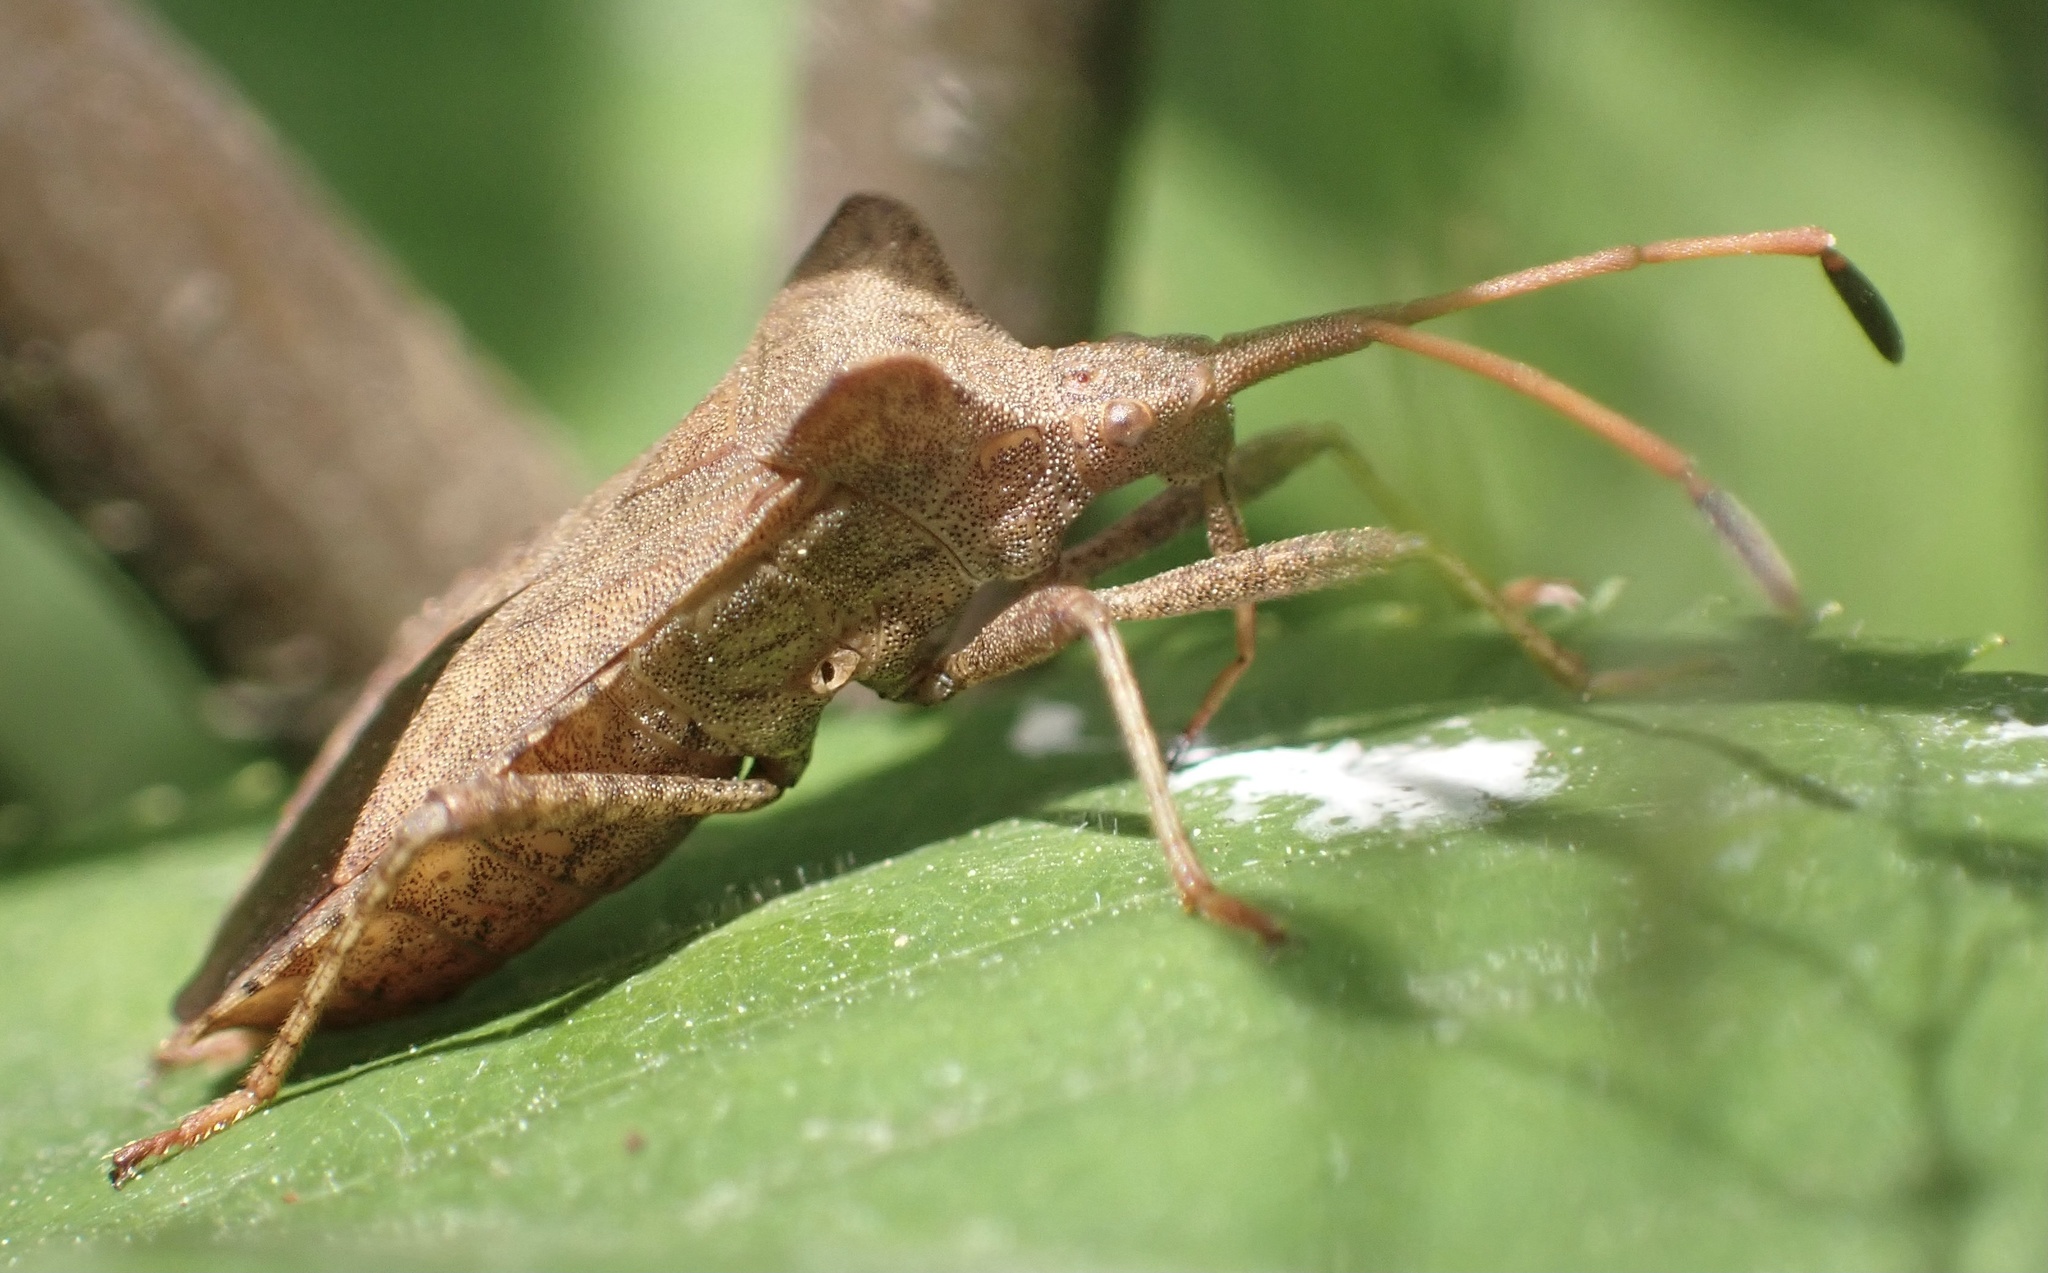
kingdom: Animalia
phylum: Arthropoda
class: Insecta
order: Hemiptera
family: Coreidae
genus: Coreus
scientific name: Coreus marginatus
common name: Dock bug
